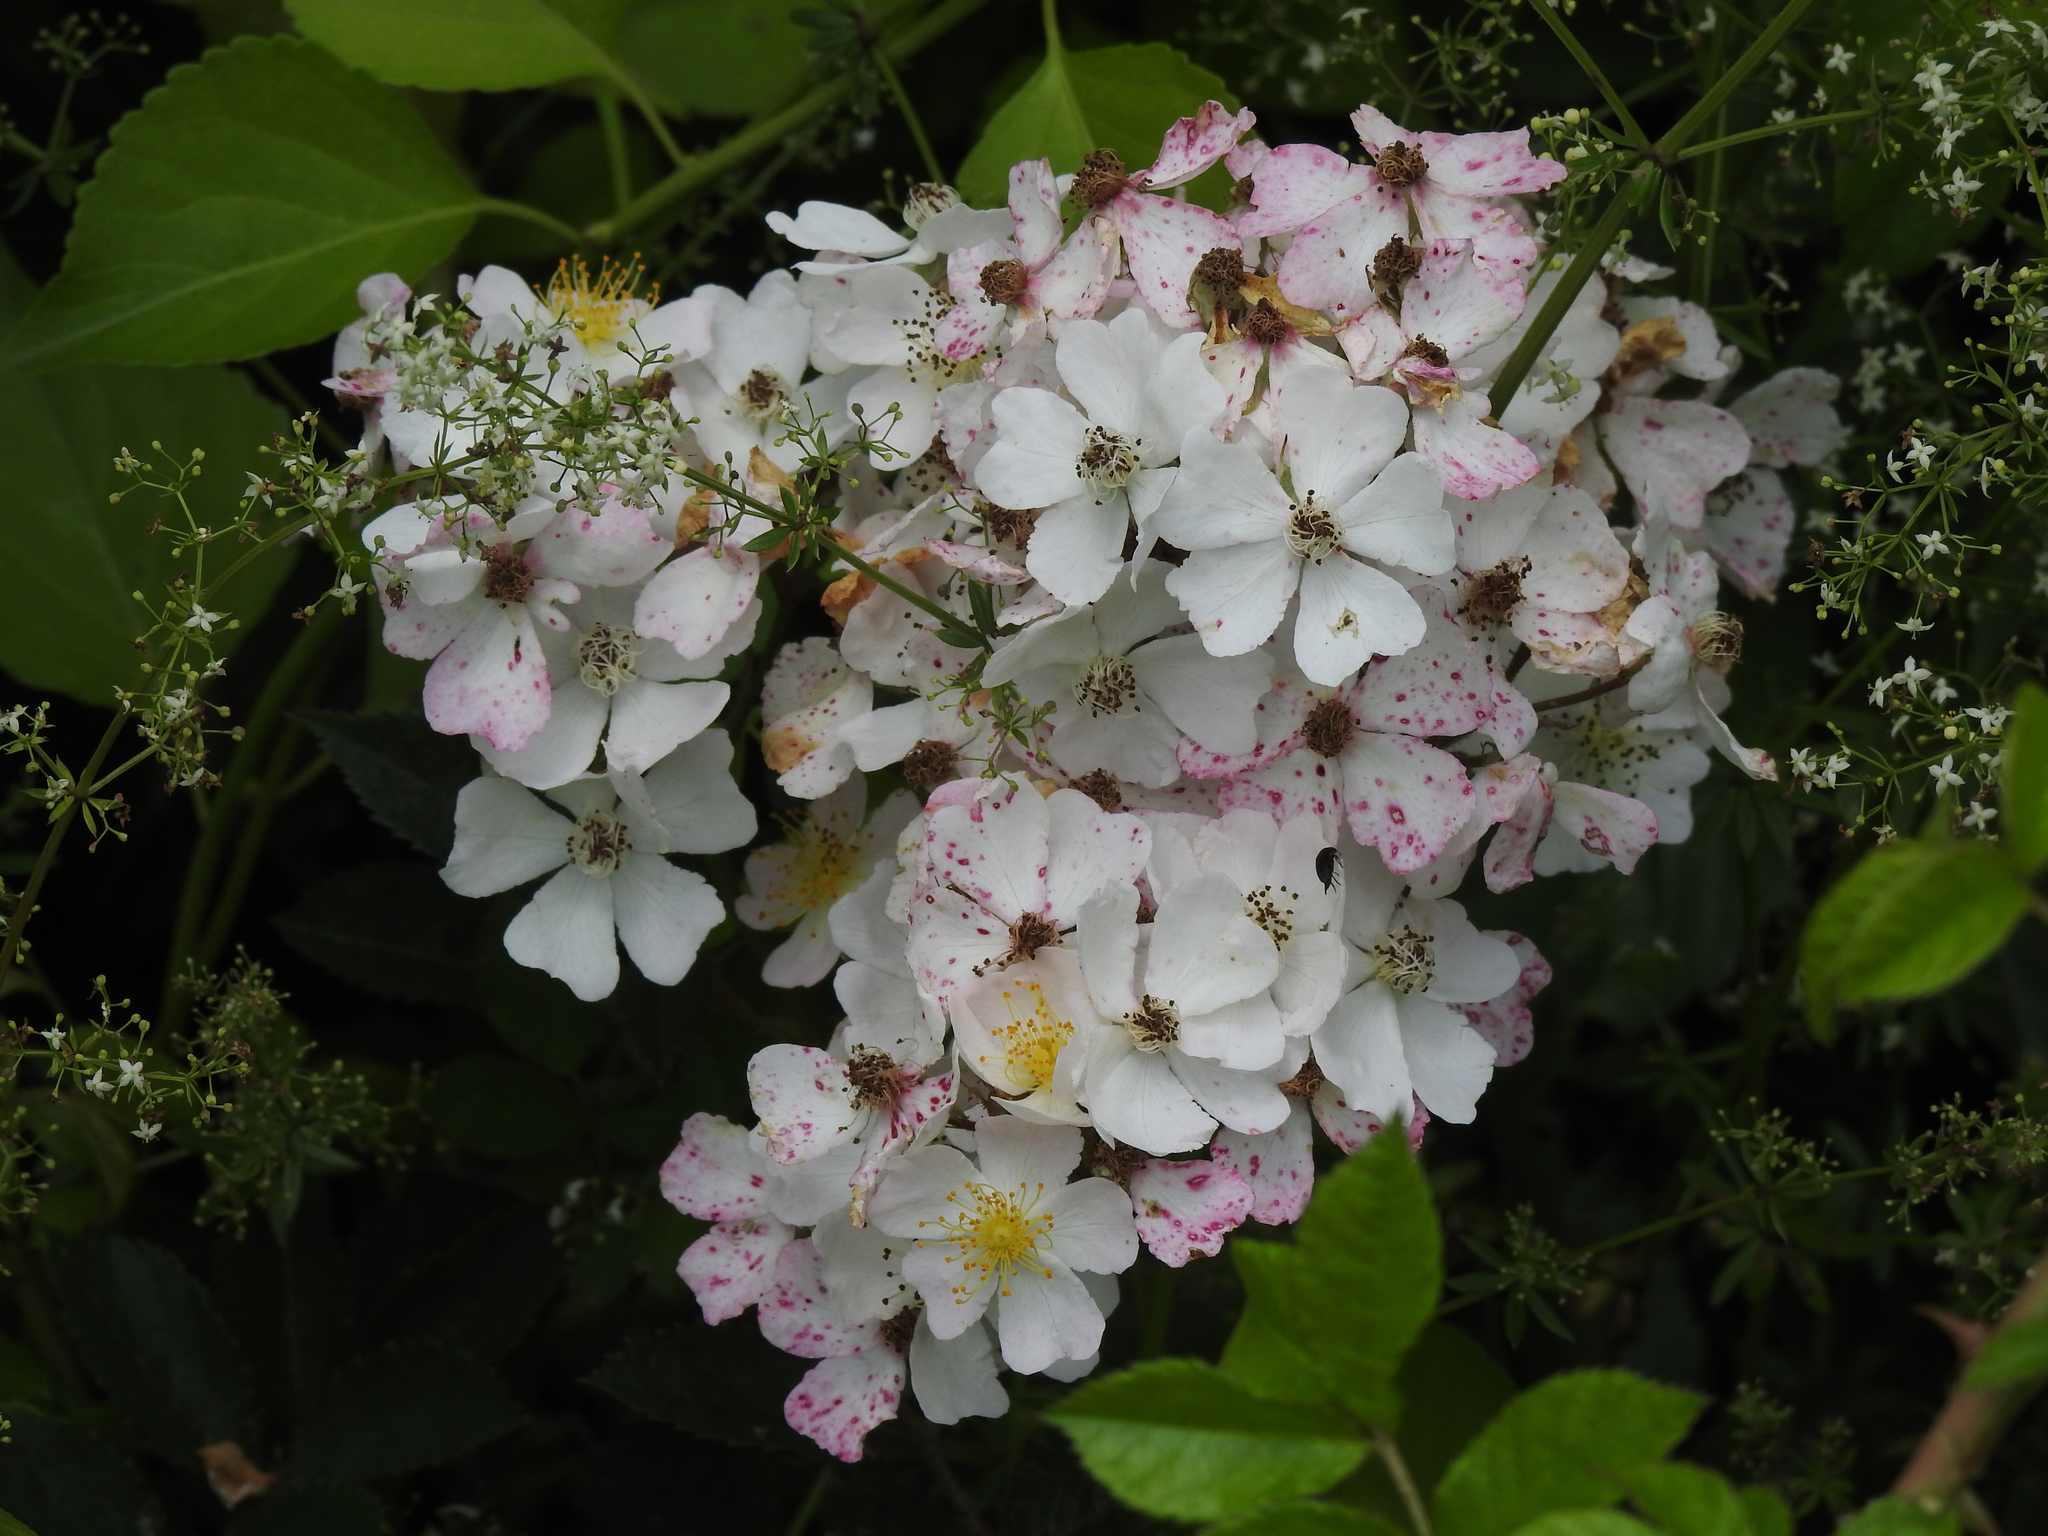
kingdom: Plantae
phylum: Tracheophyta
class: Magnoliopsida
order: Rosales
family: Rosaceae
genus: Rosa
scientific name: Rosa multiflora
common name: Multiflora rose
